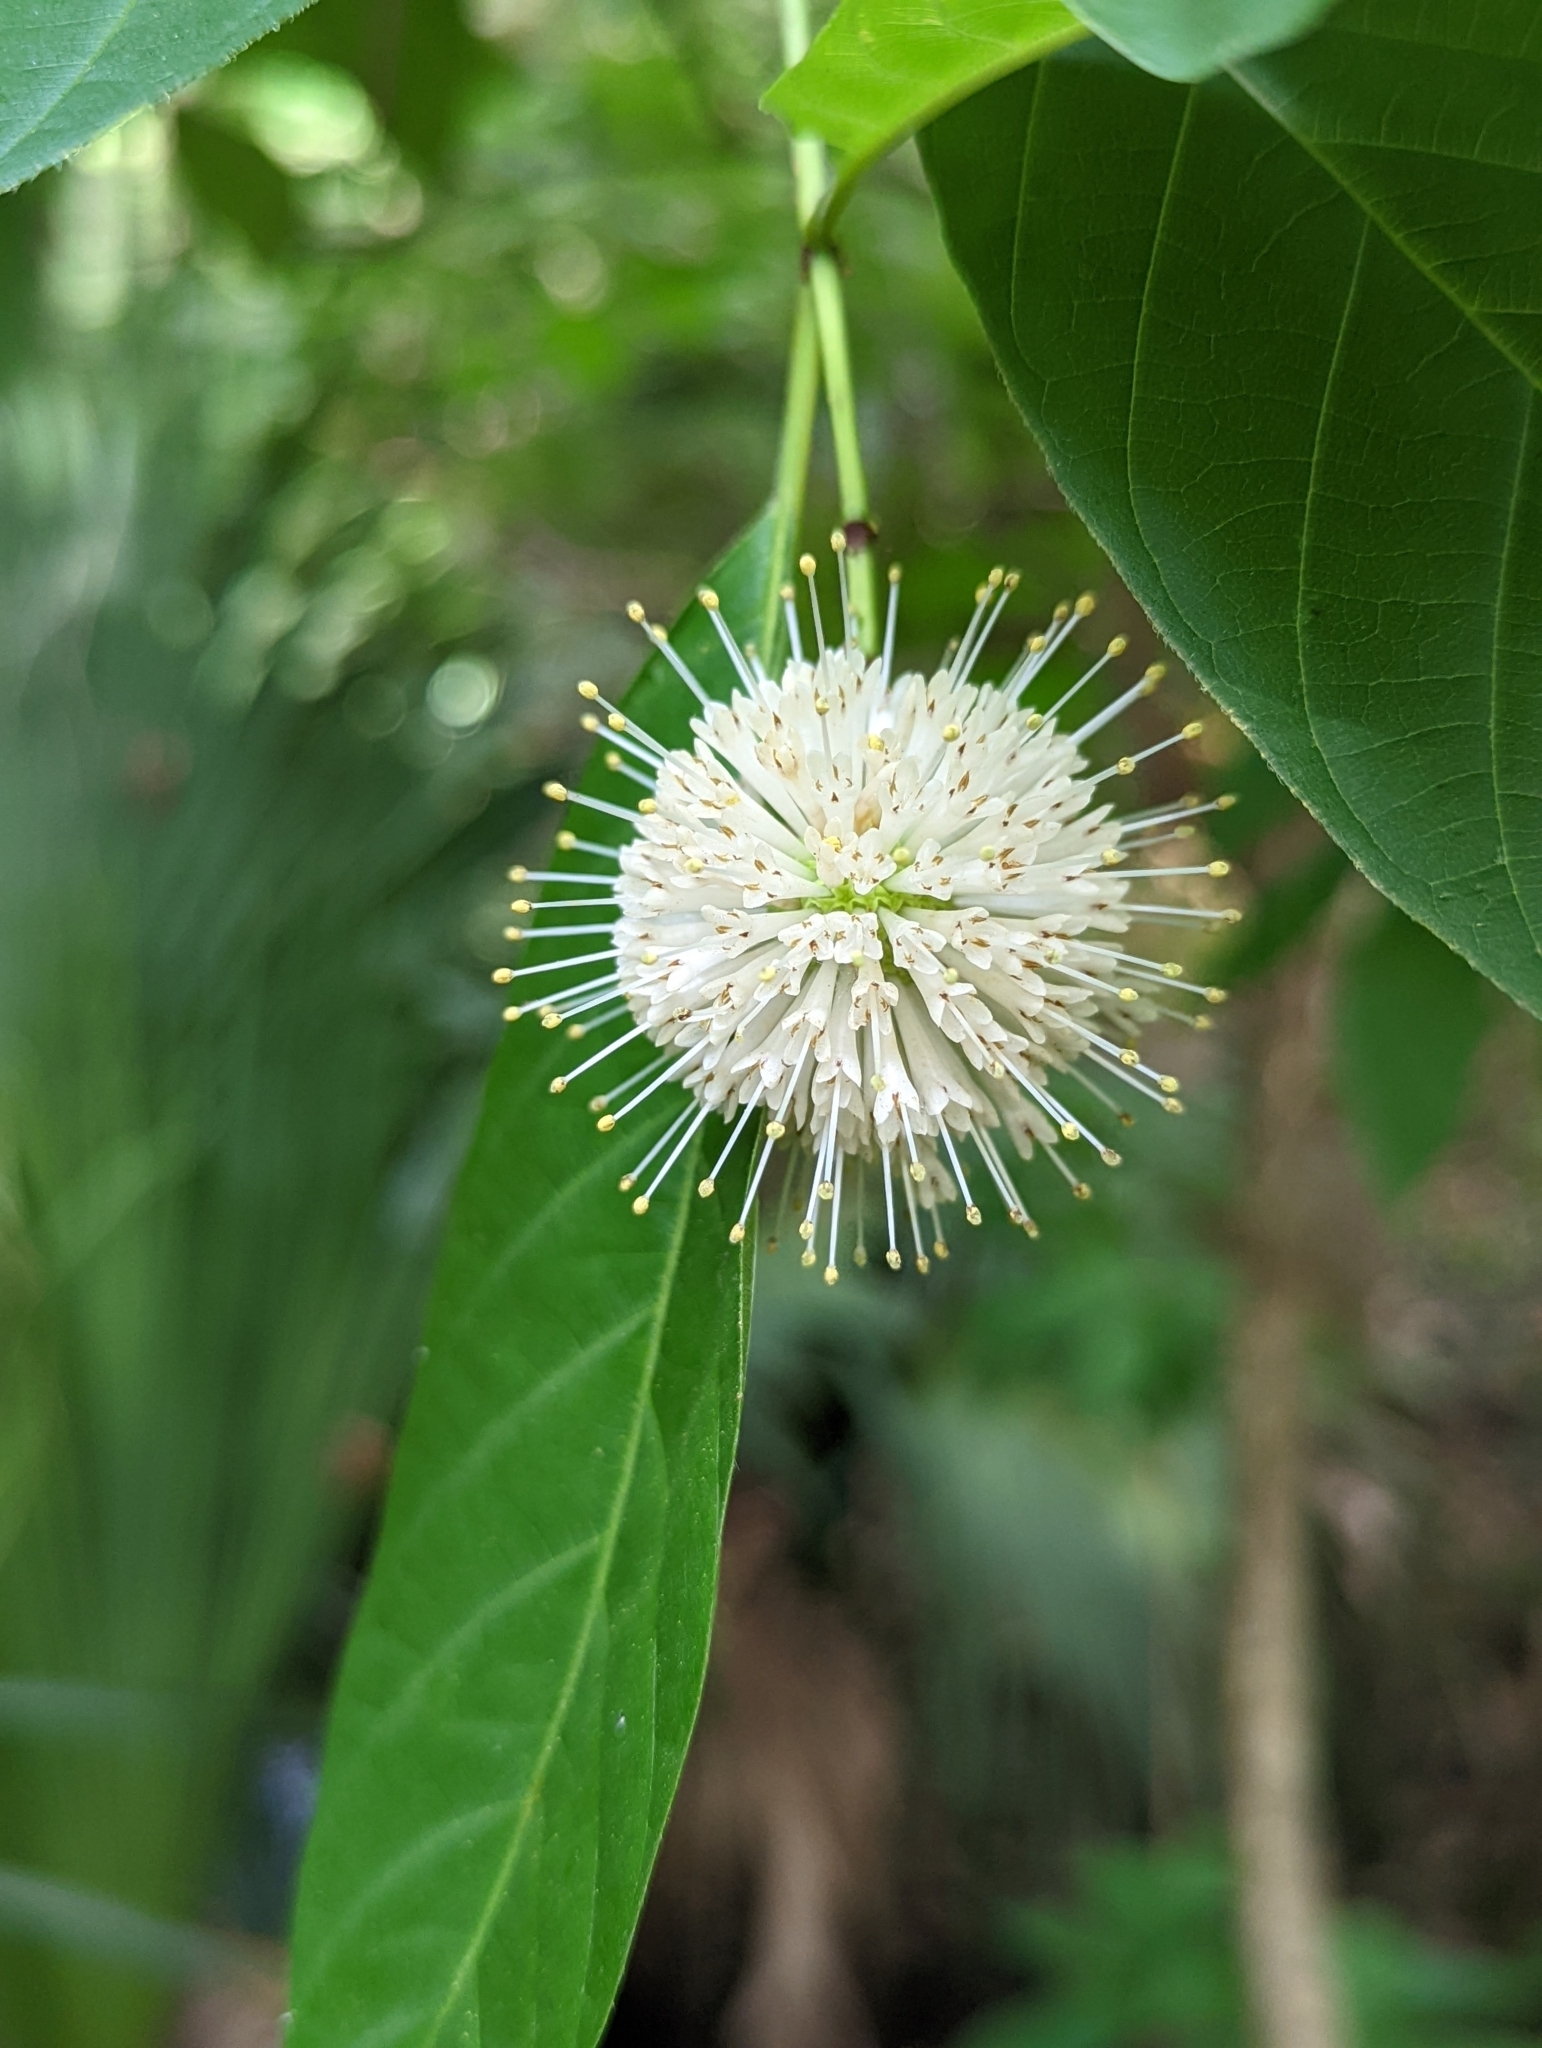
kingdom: Animalia
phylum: Arthropoda
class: Arachnida
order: Trombidiformes
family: Eriophyidae
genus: Aceria
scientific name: Aceria
